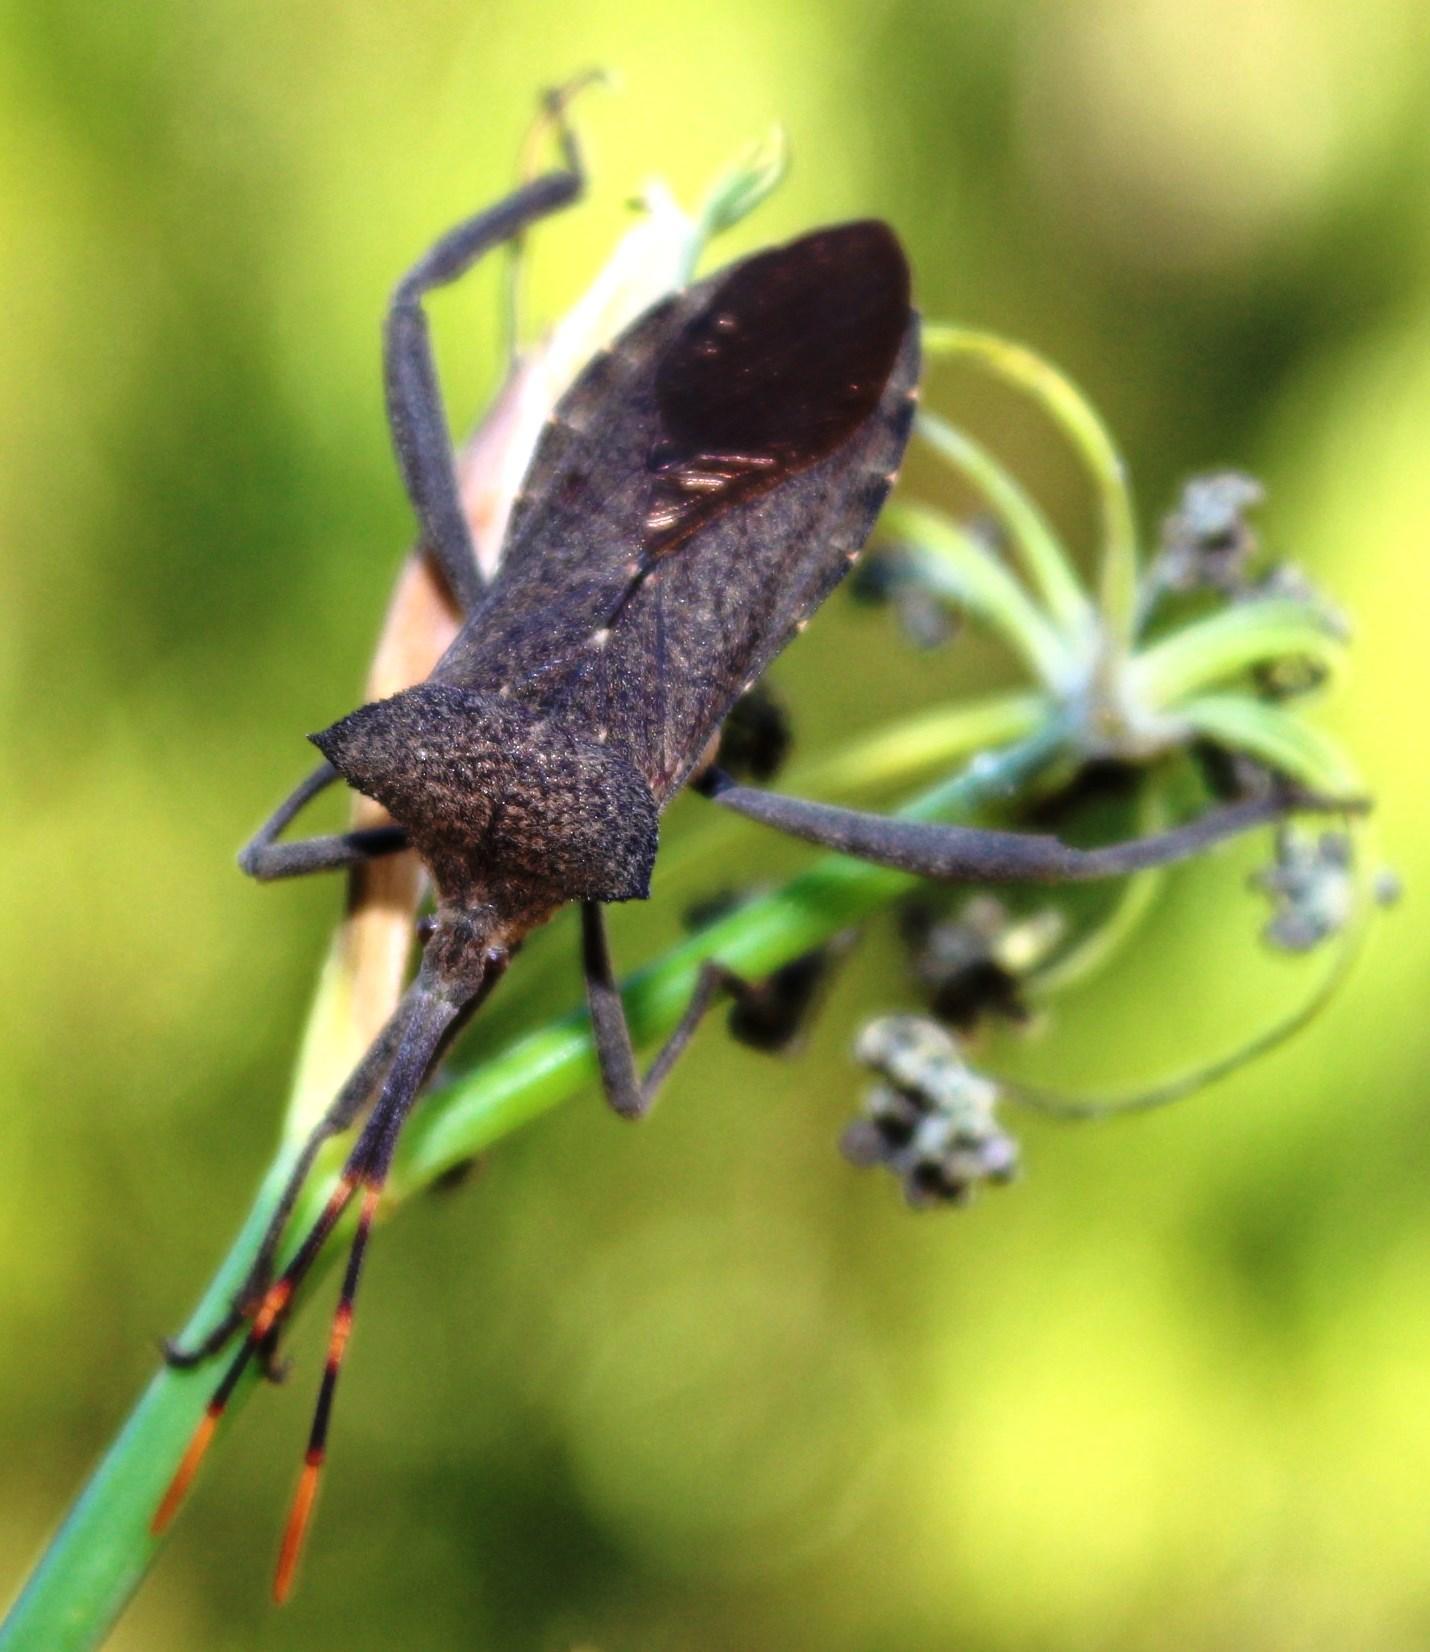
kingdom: Animalia
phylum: Arthropoda
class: Insecta
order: Hemiptera
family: Coreidae
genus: Elasmopoda
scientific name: Elasmopoda valga
